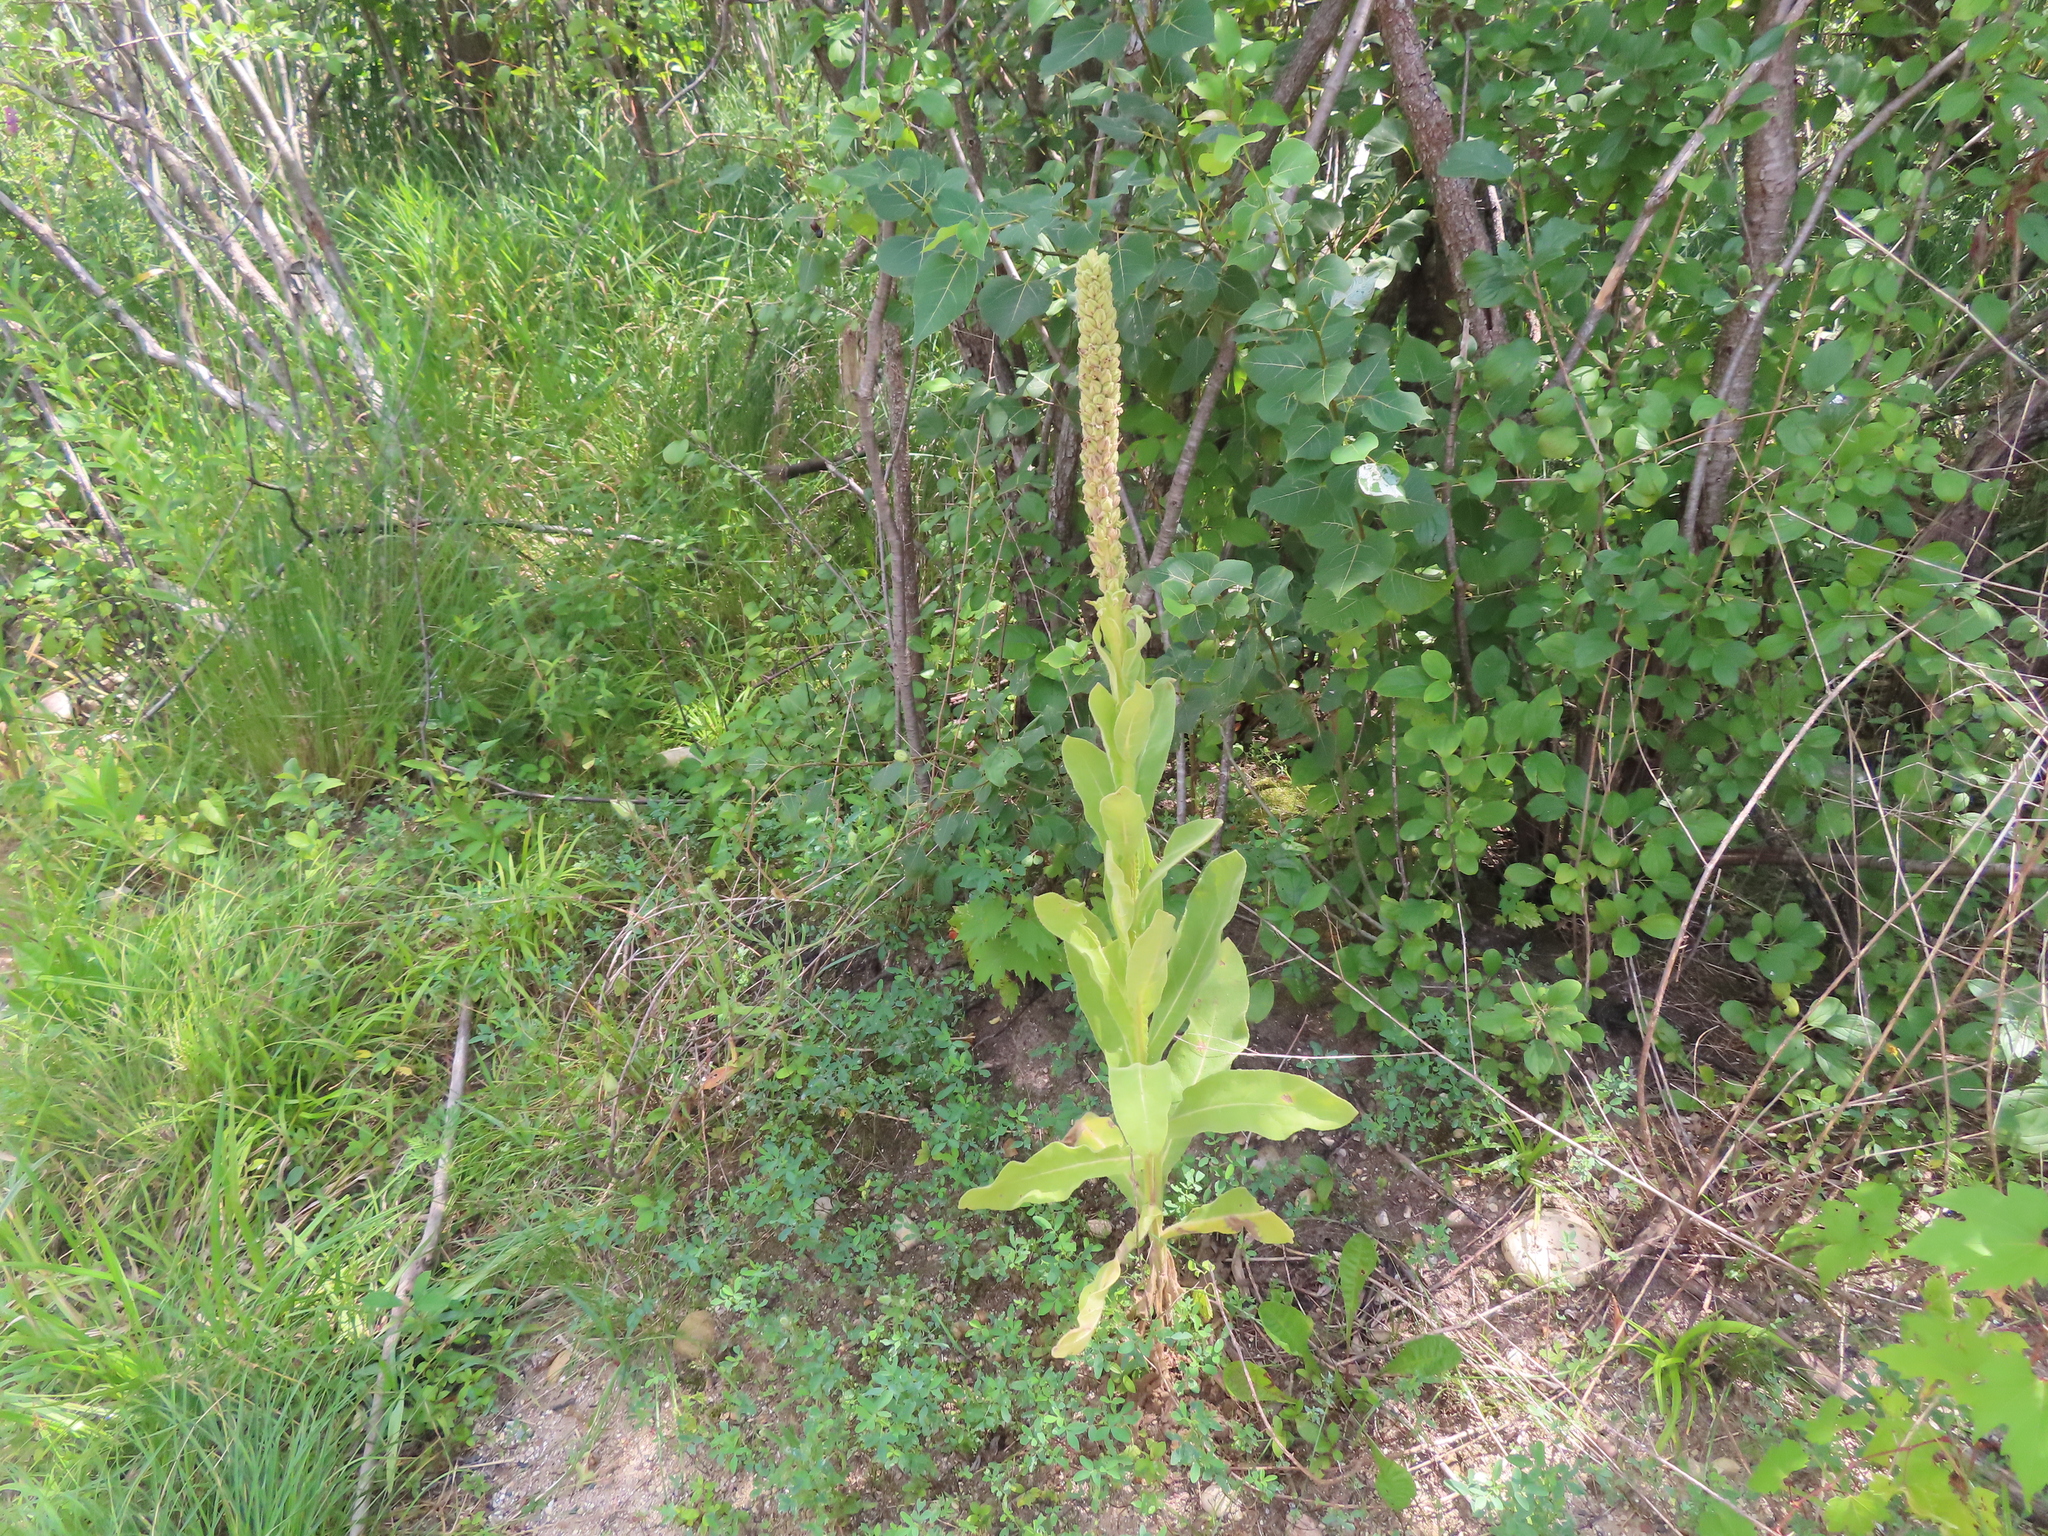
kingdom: Plantae
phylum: Tracheophyta
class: Magnoliopsida
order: Lamiales
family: Scrophulariaceae
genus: Verbascum
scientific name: Verbascum thapsus
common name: Common mullein
